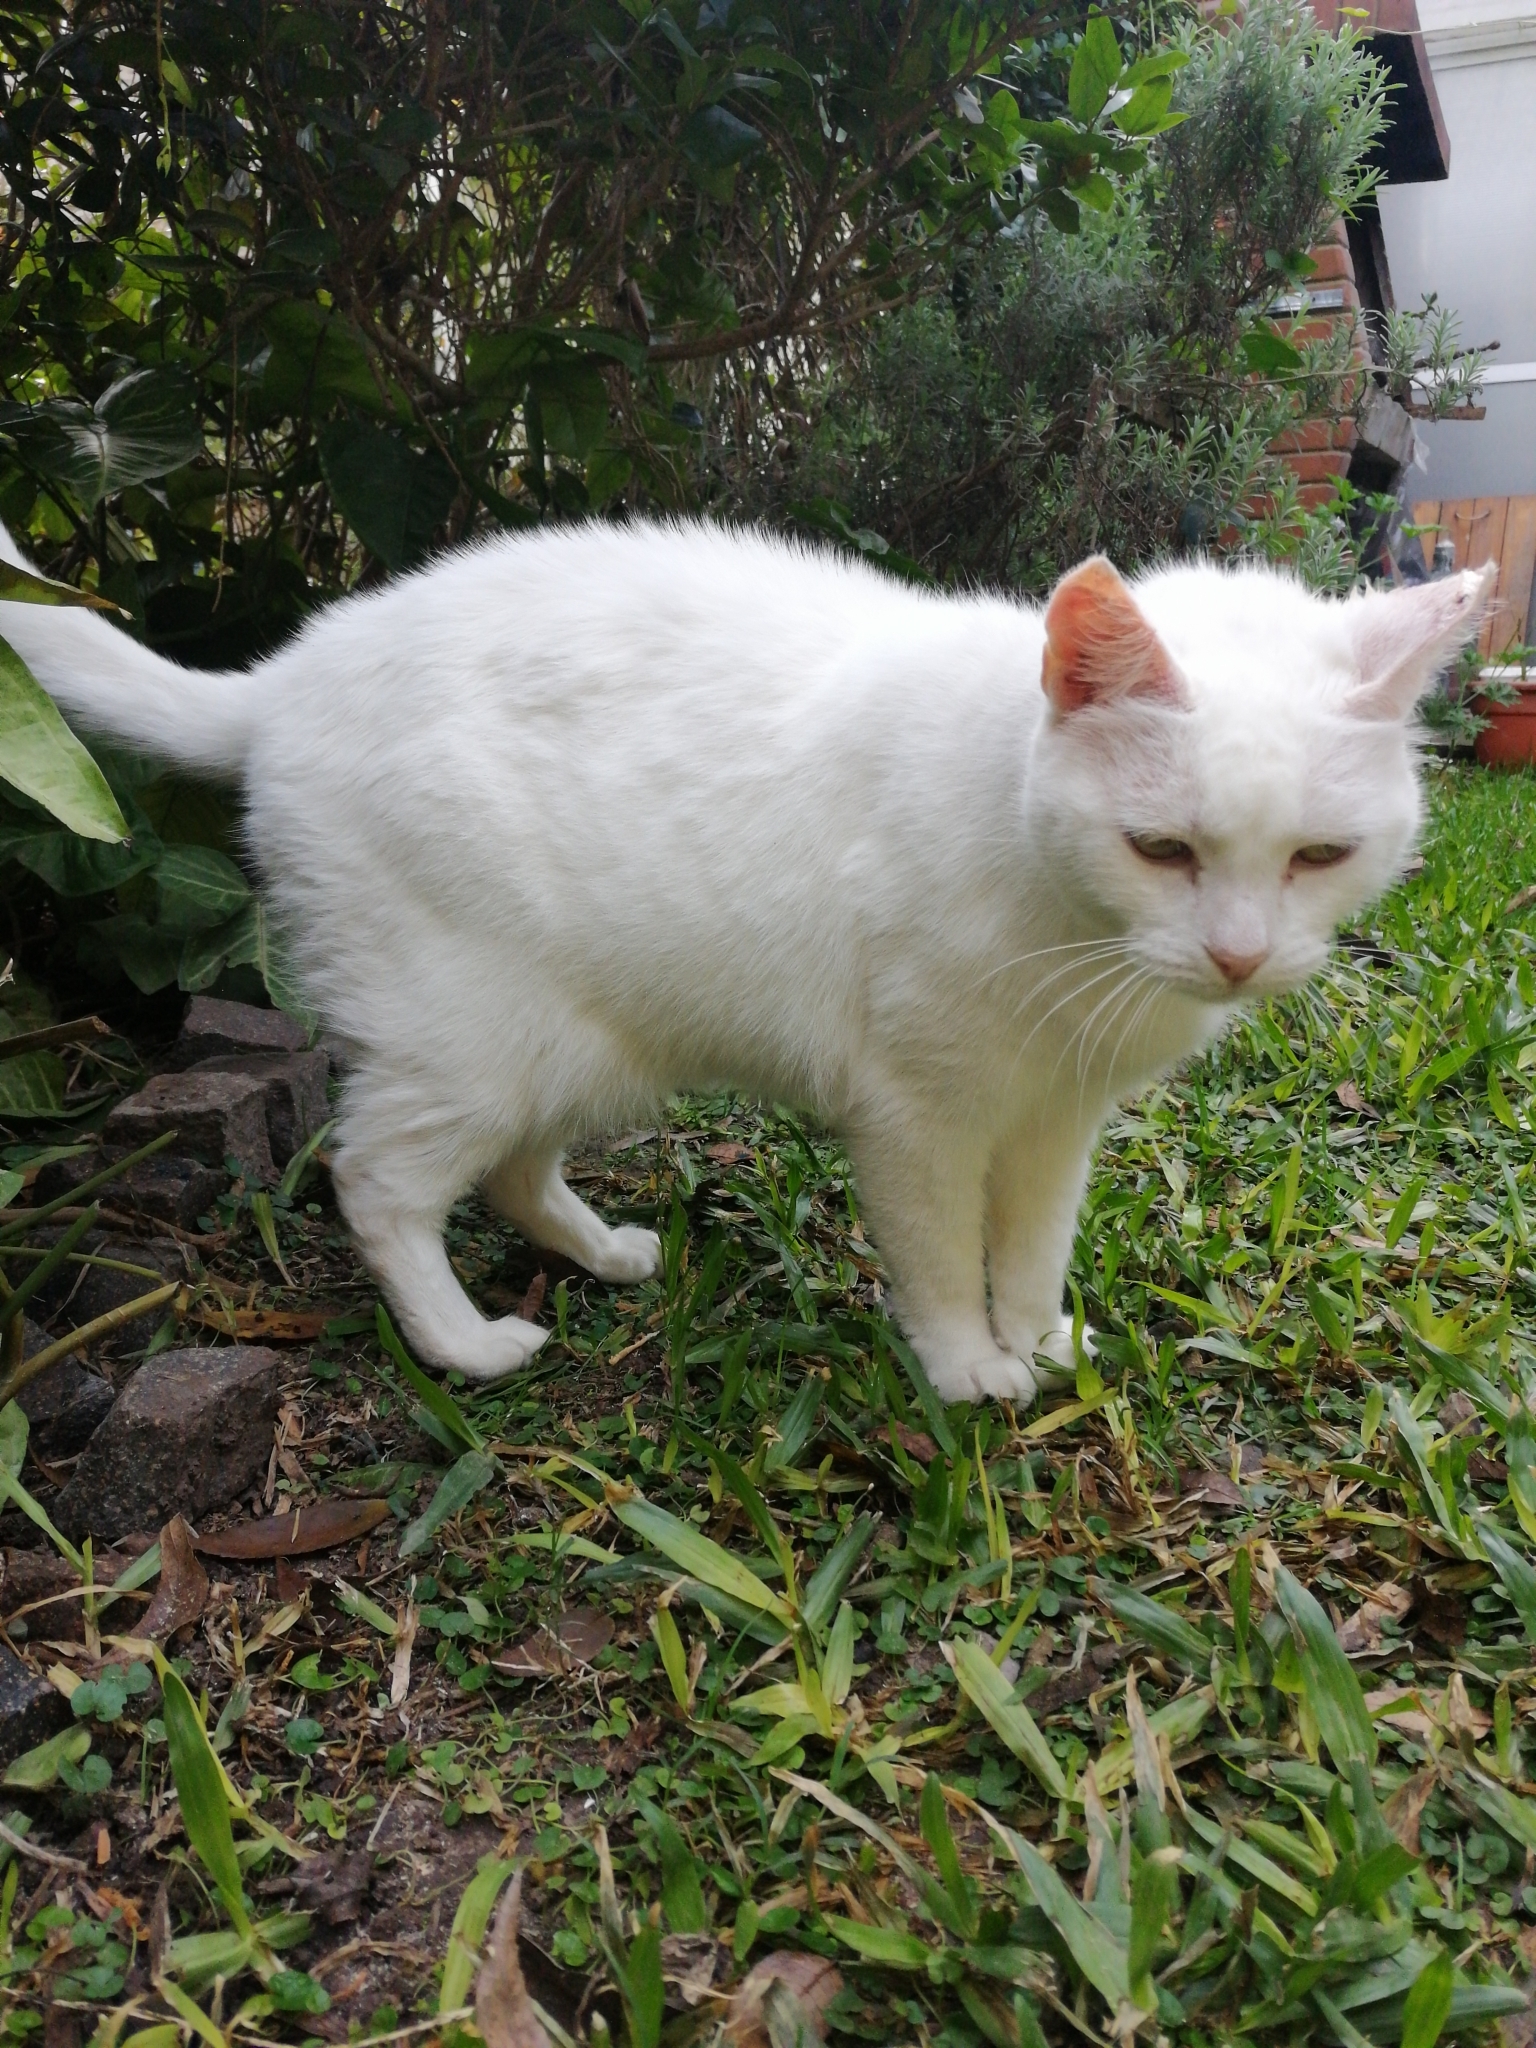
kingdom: Animalia
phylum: Chordata
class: Mammalia
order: Carnivora
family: Felidae
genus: Felis
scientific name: Felis catus
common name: Domestic cat
